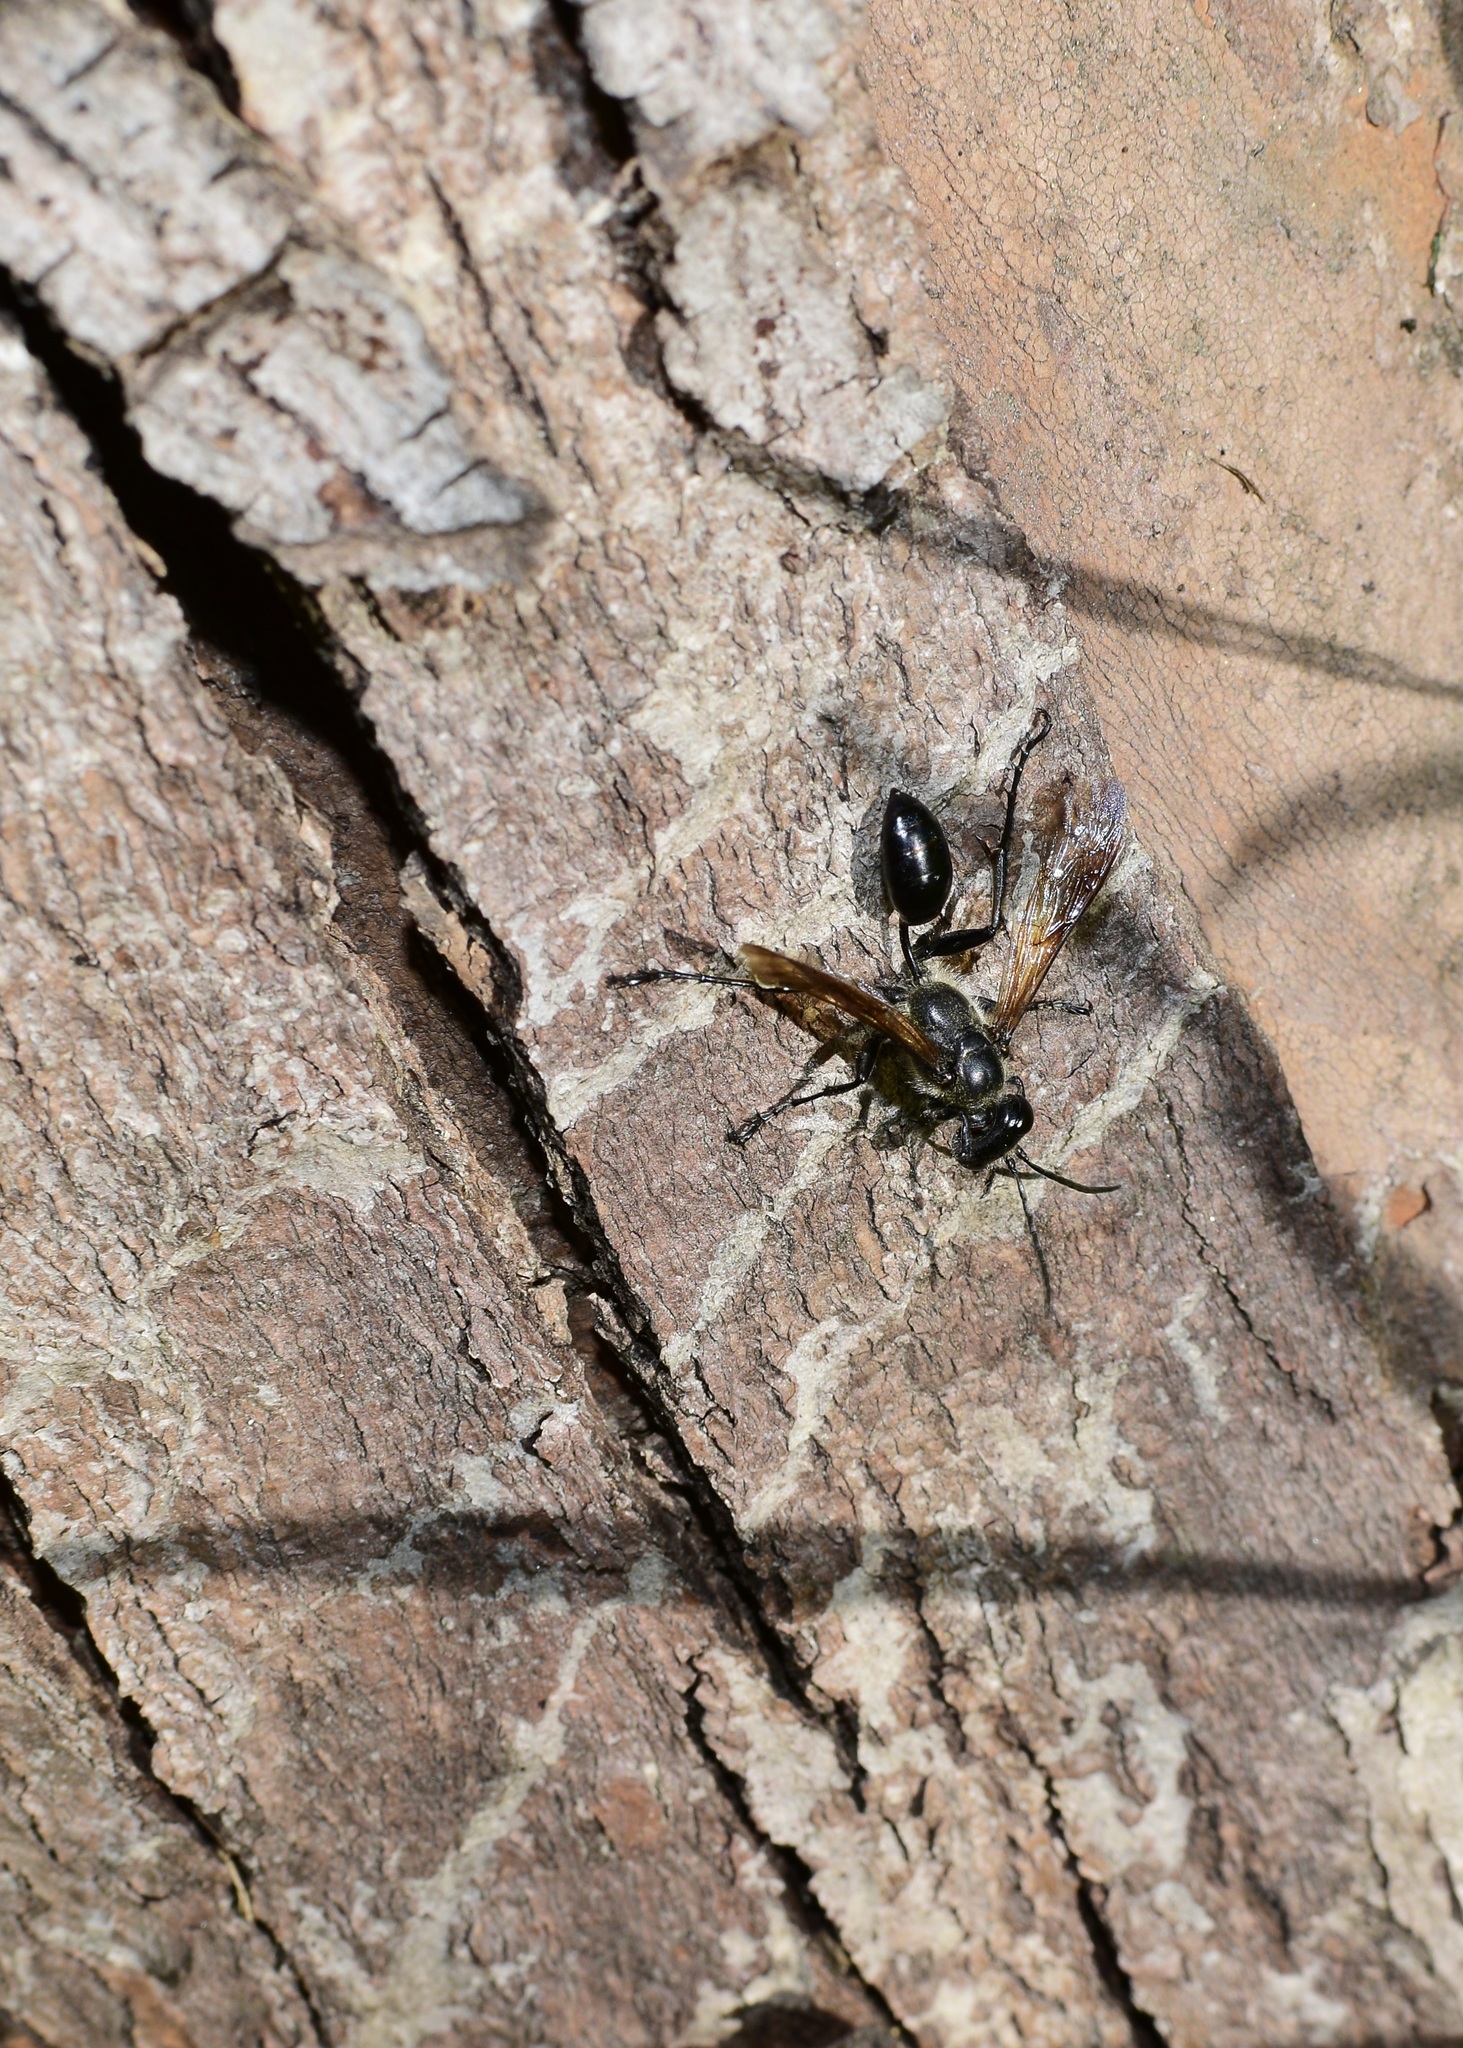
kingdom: Animalia
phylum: Arthropoda
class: Insecta
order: Hymenoptera
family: Sphecidae
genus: Isodontia
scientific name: Isodontia mexicana
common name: Mud dauber
